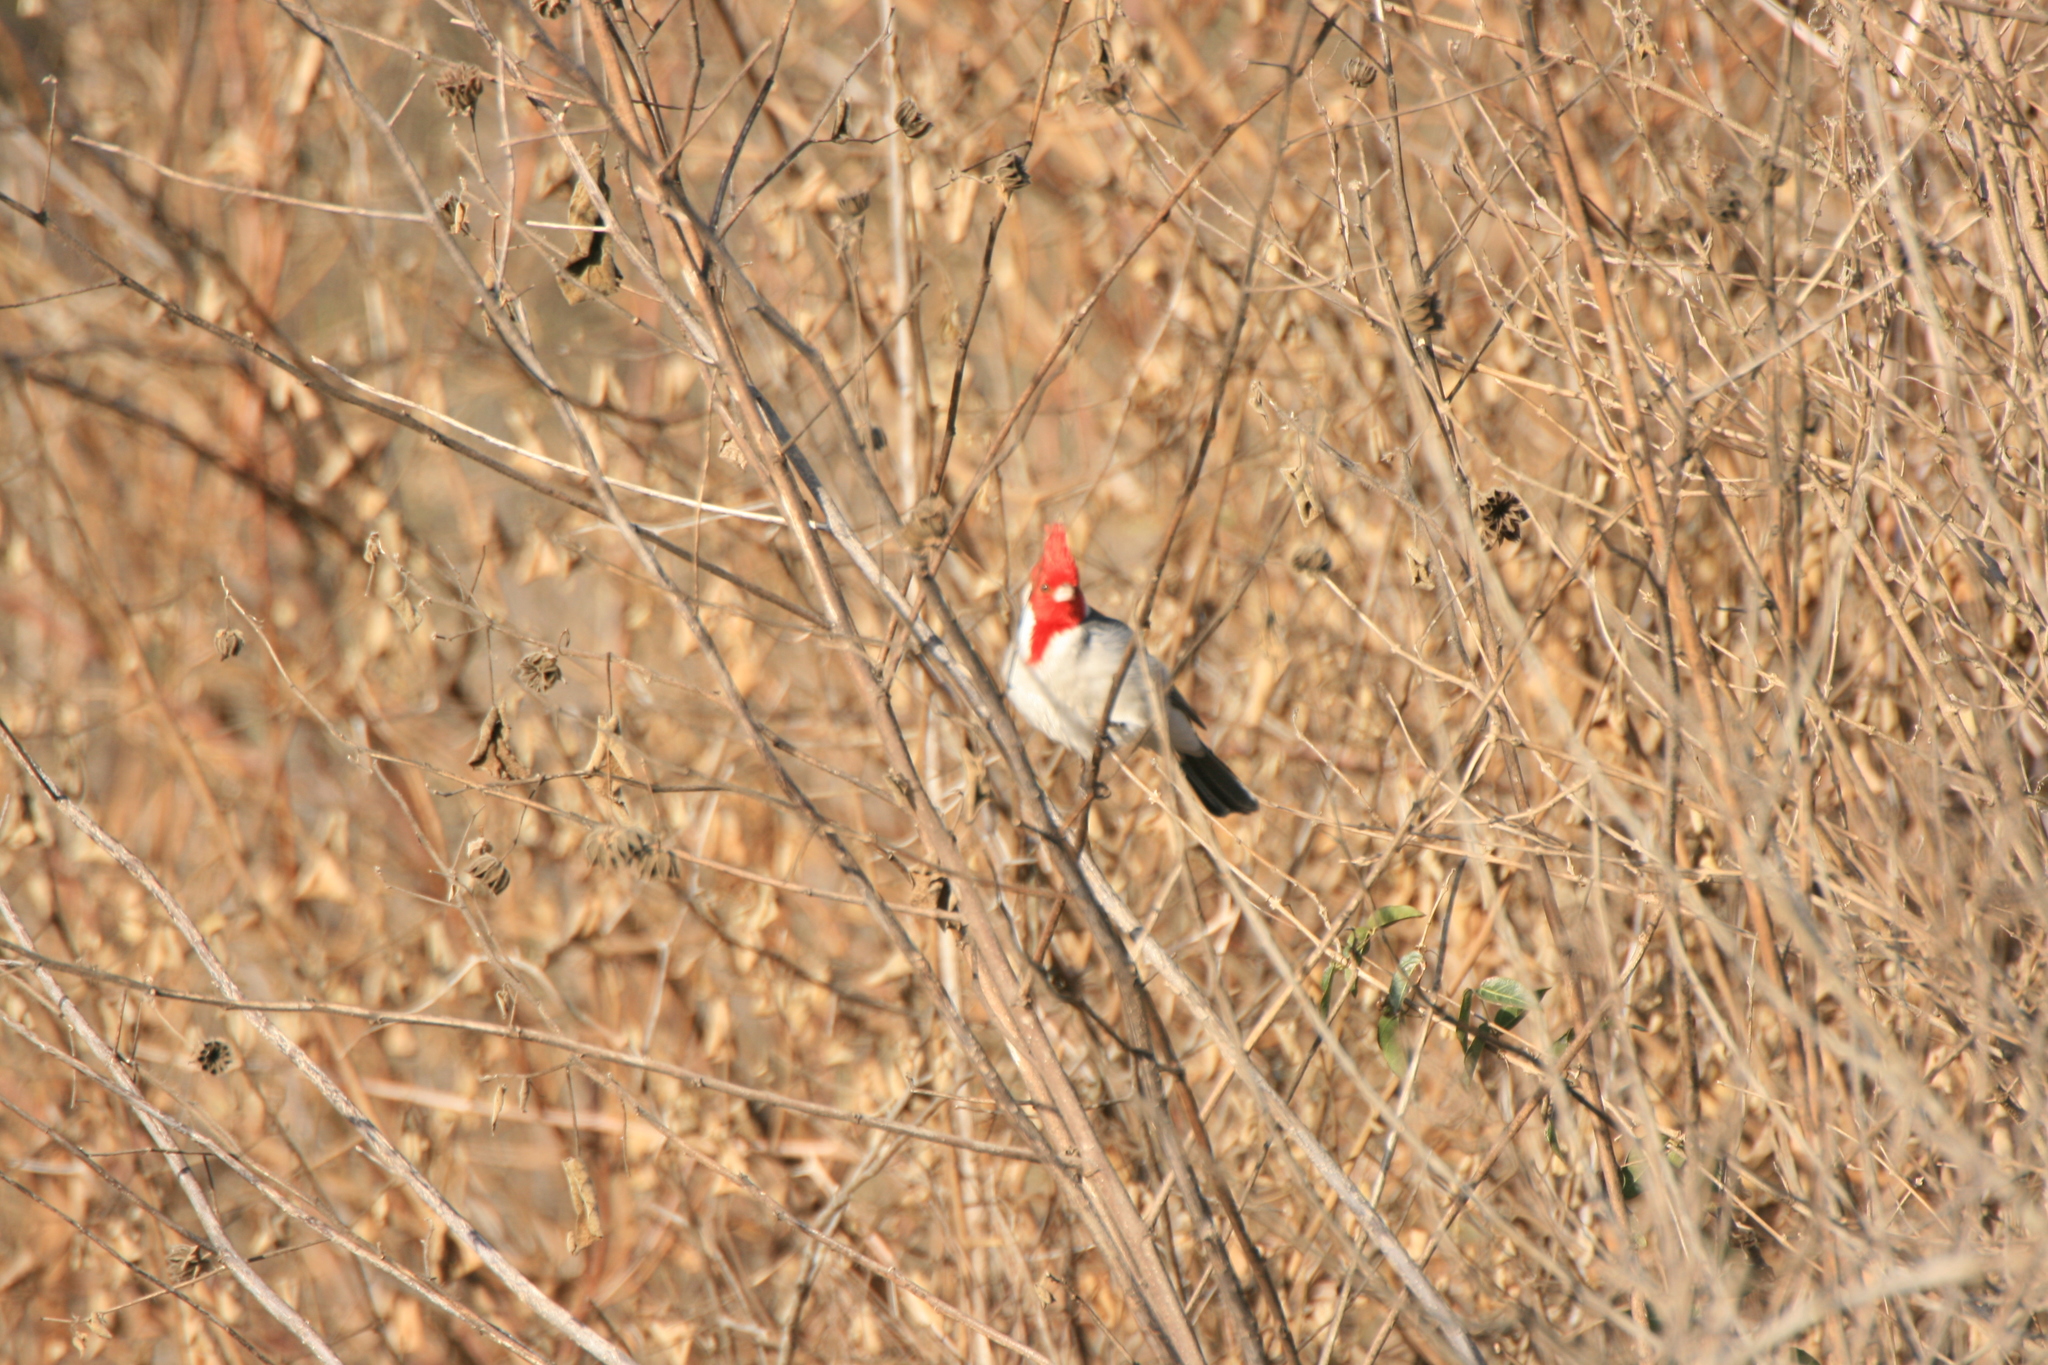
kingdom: Animalia
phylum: Chordata
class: Aves
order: Passeriformes
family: Thraupidae
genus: Paroaria
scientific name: Paroaria coronata
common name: Red-crested cardinal
